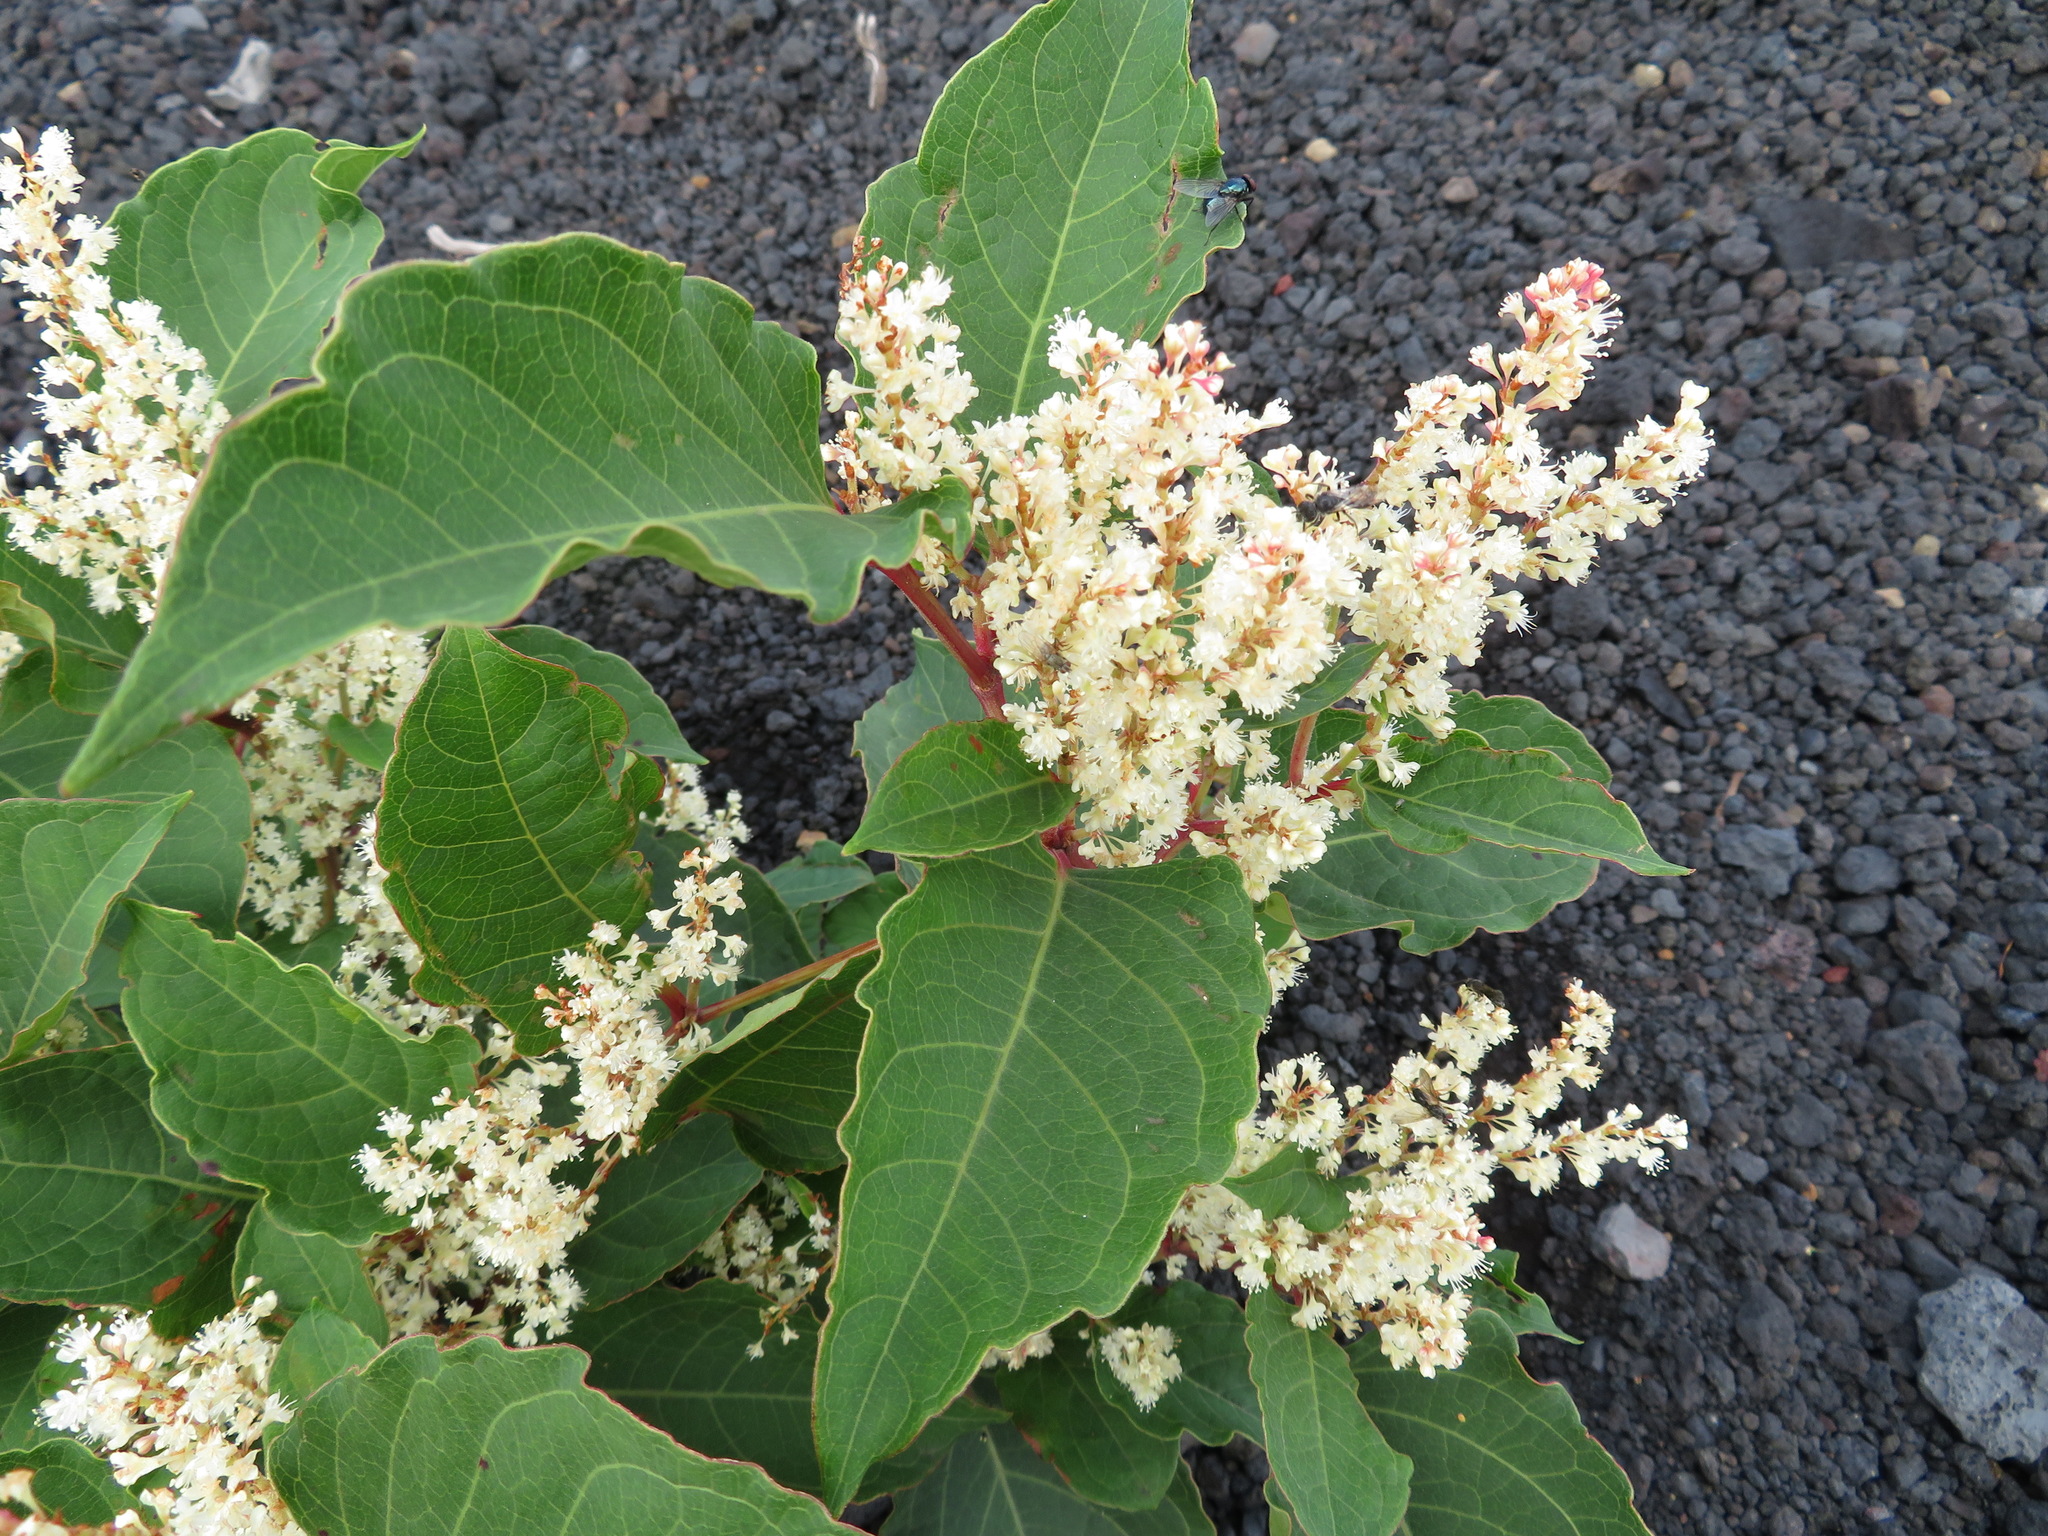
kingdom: Plantae
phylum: Tracheophyta
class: Magnoliopsida
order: Caryophyllales
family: Polygonaceae
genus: Reynoutria
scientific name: Reynoutria japonica
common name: Japanese knotweed
